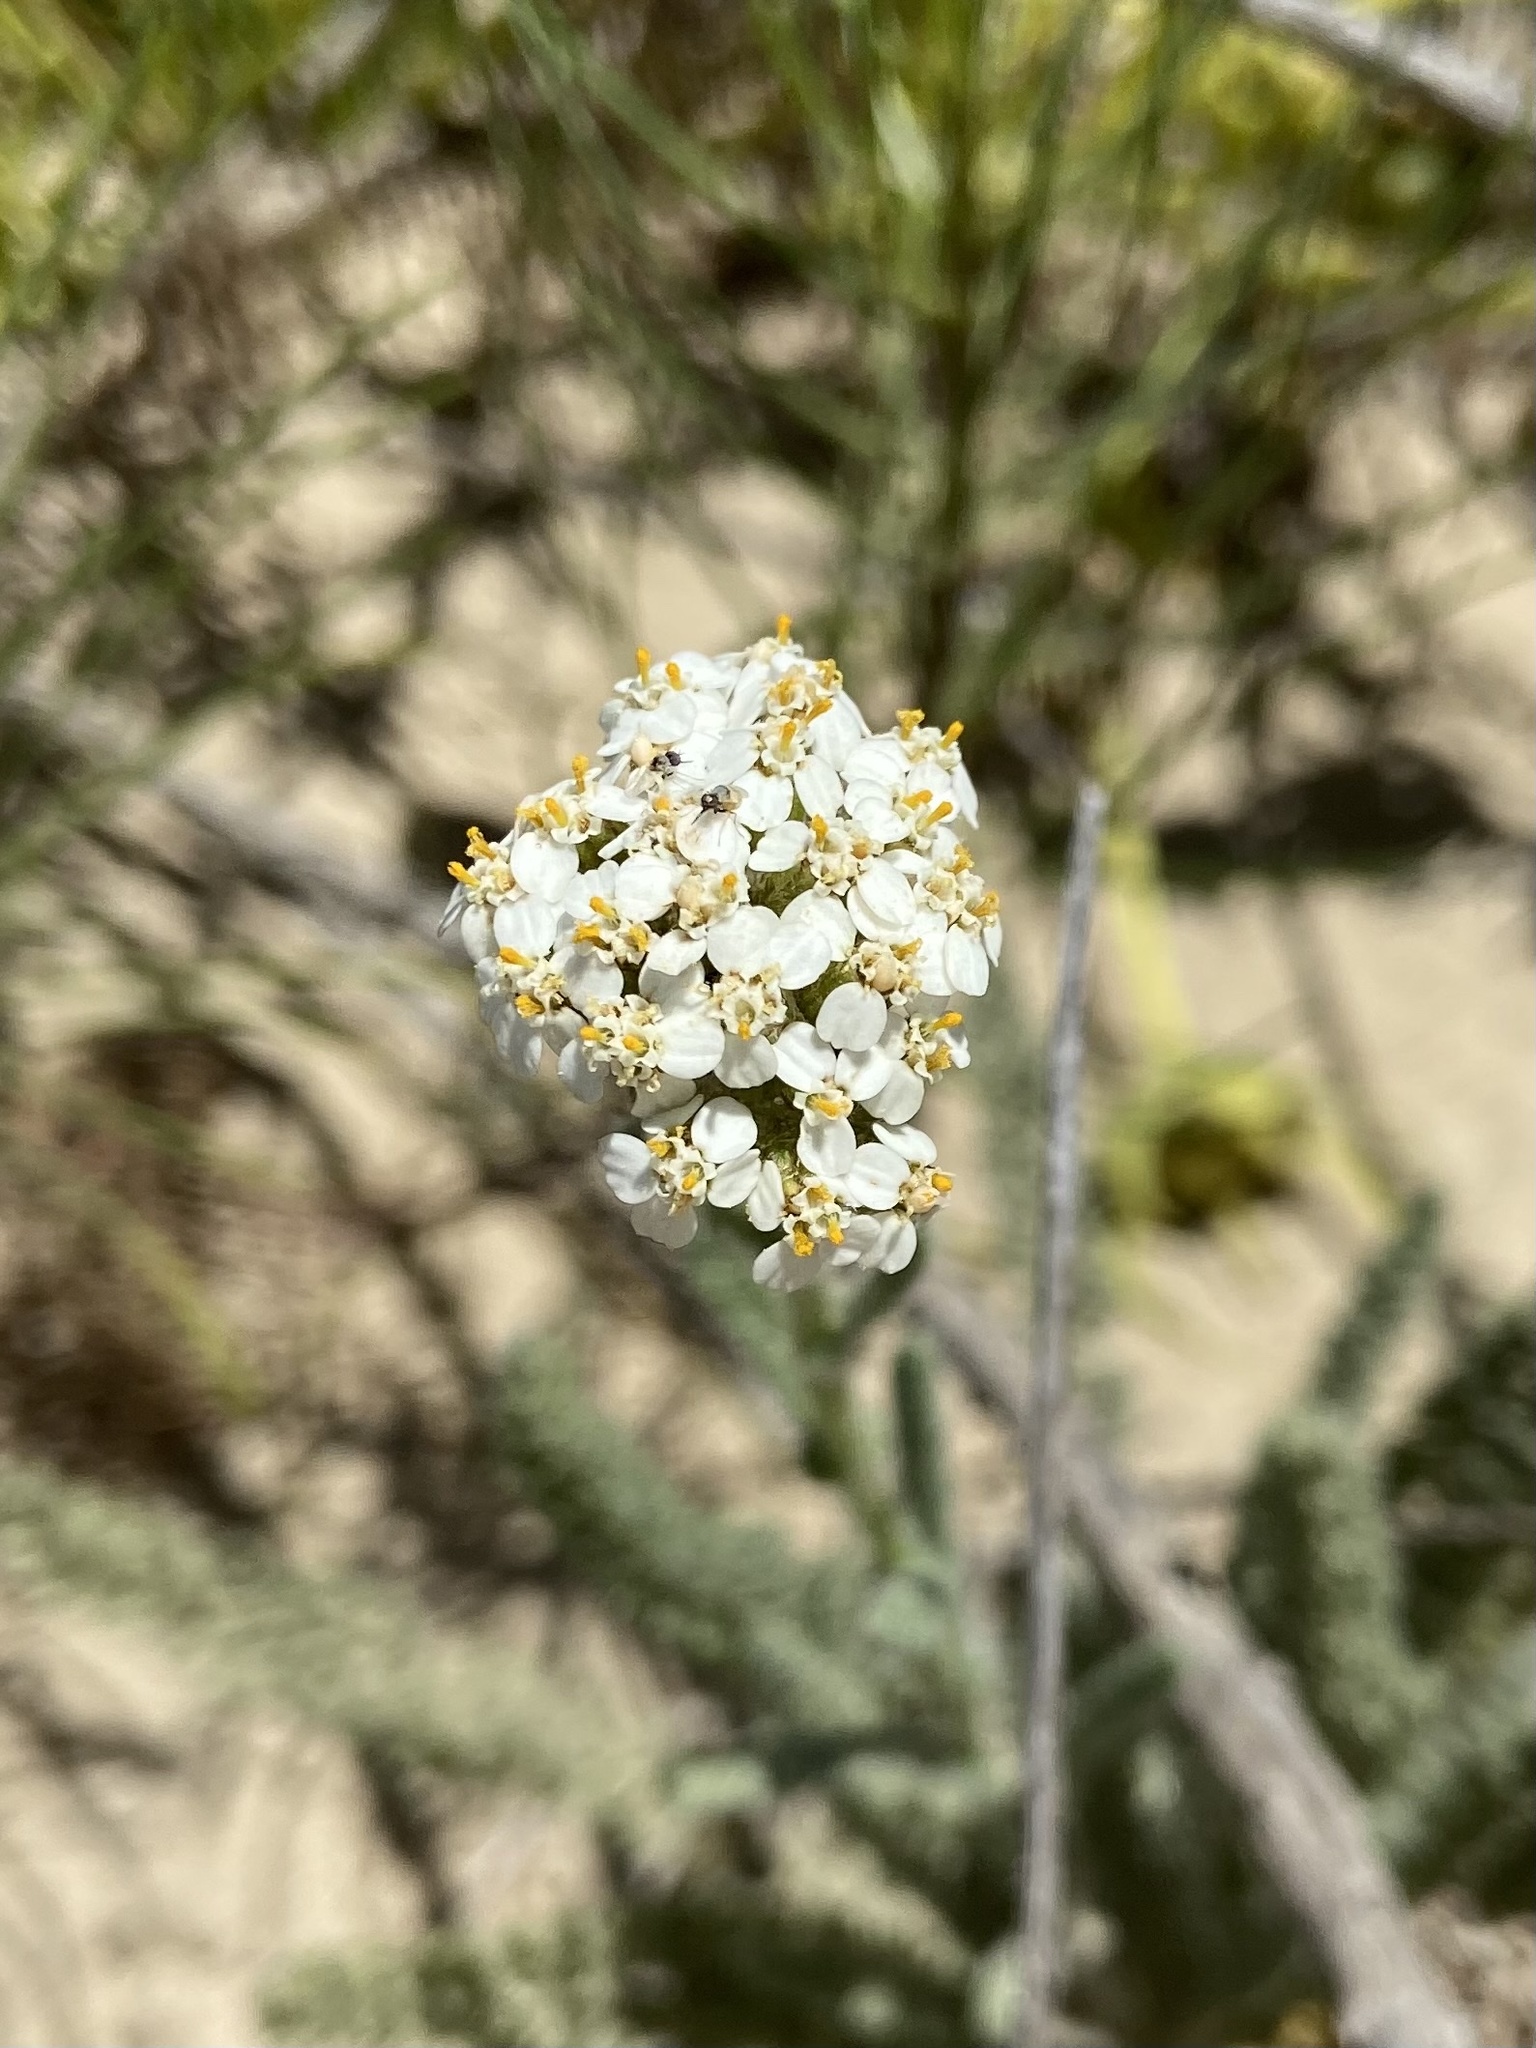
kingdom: Plantae
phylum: Tracheophyta
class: Magnoliopsida
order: Asterales
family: Asteraceae
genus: Achillea
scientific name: Achillea millefolium
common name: Yarrow
